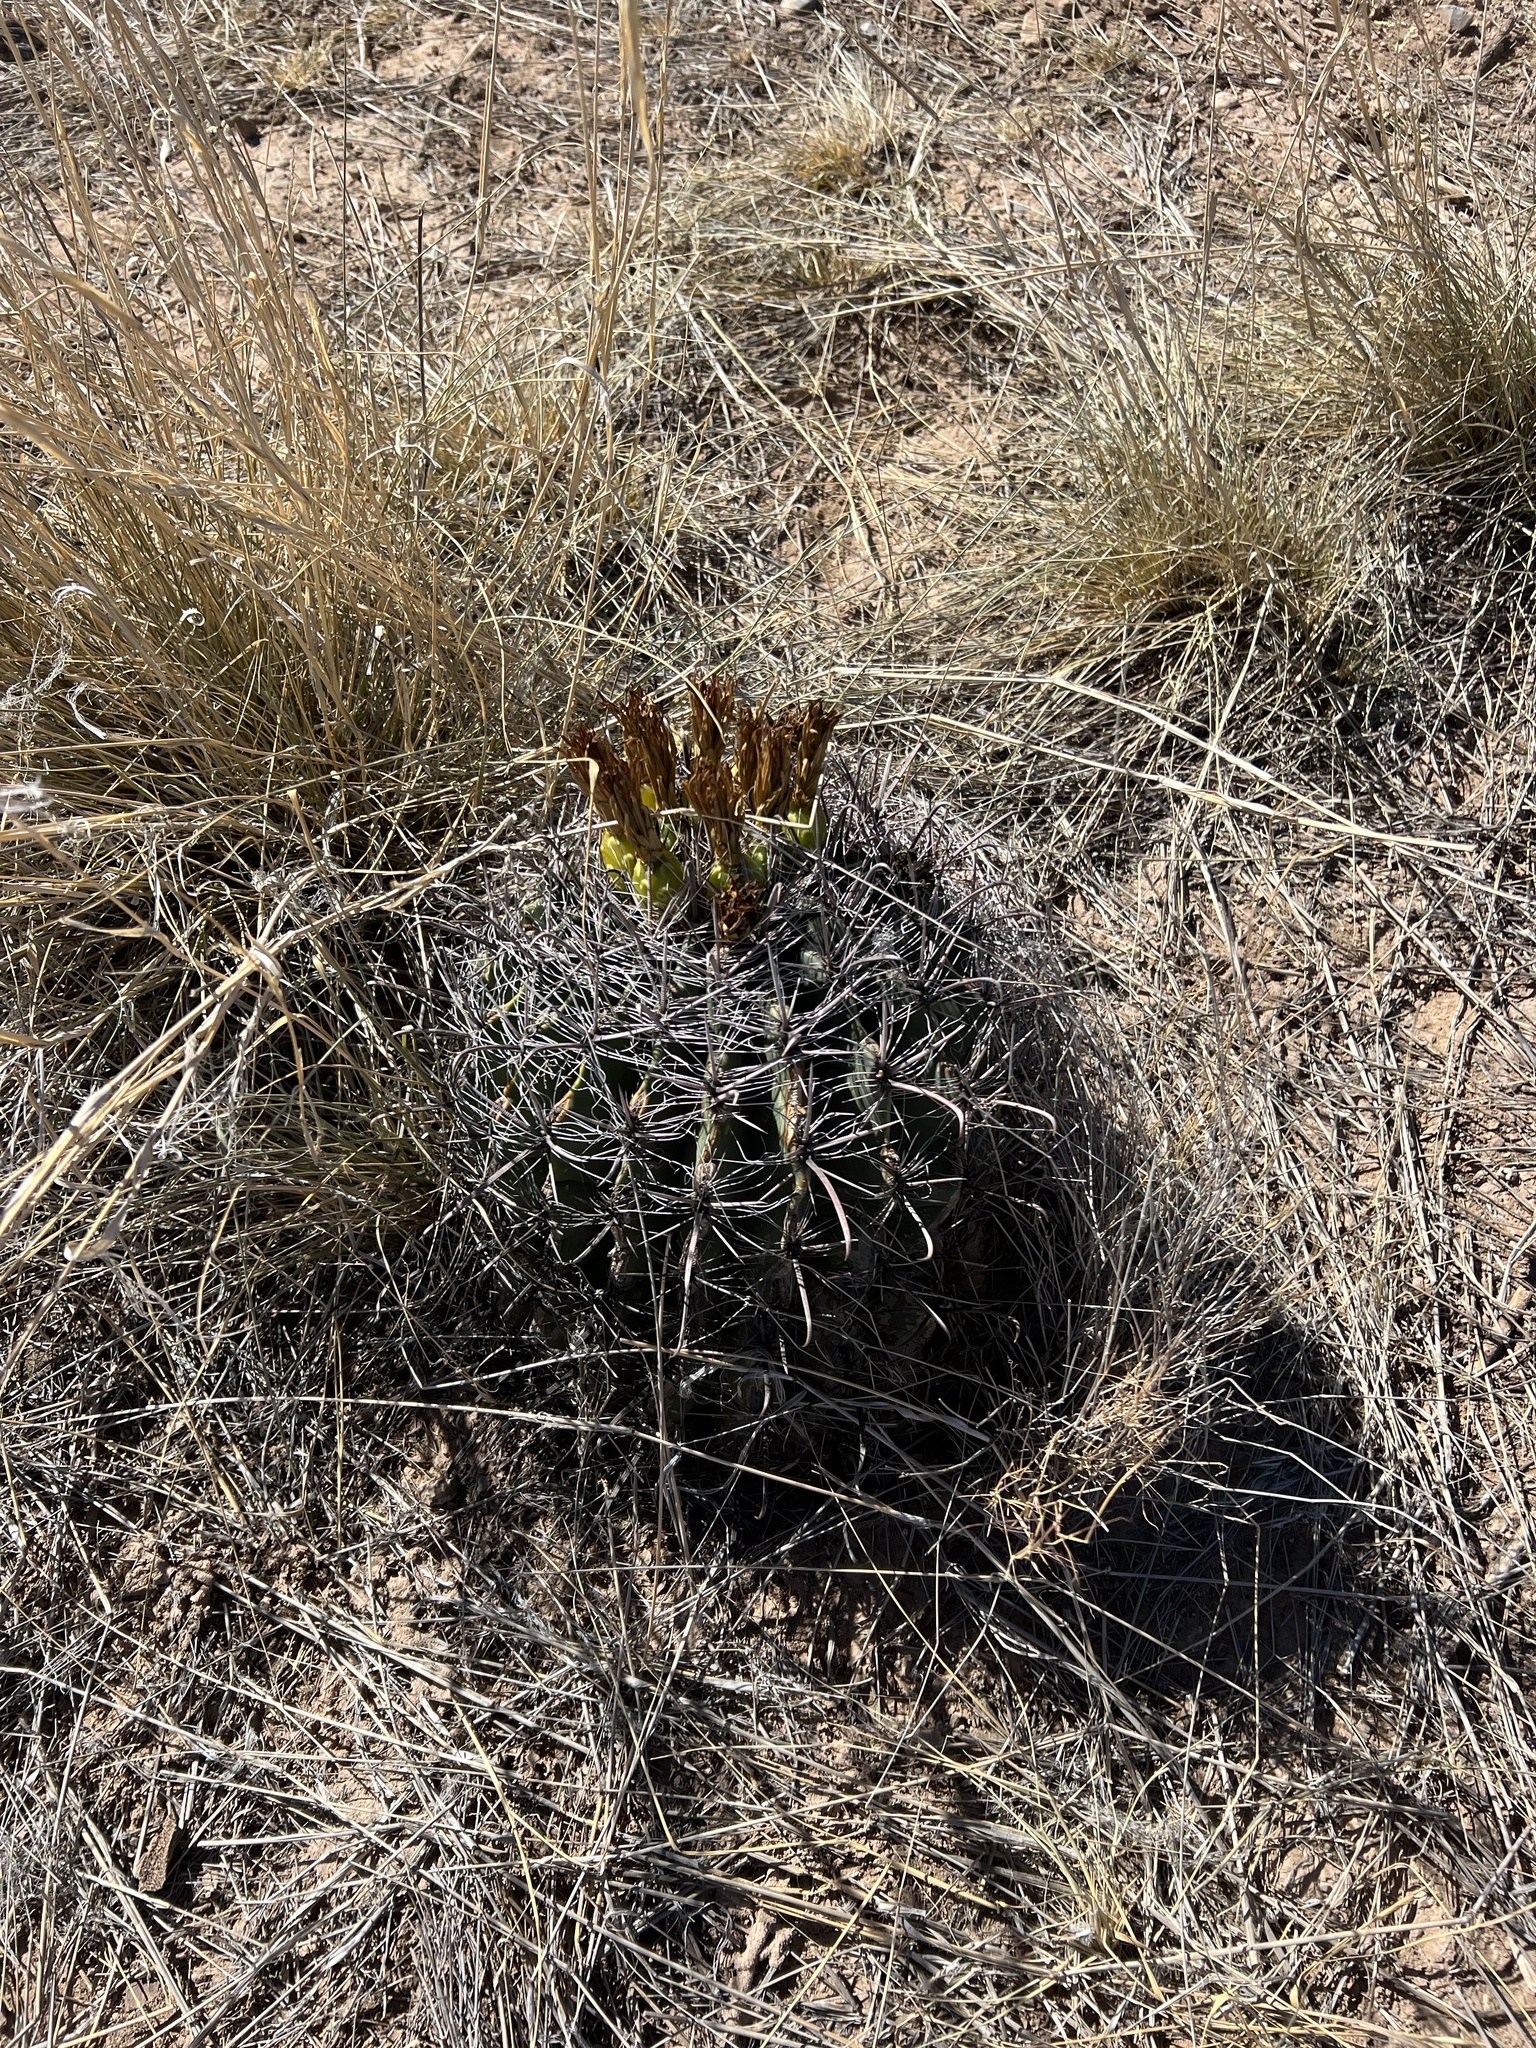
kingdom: Plantae
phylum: Tracheophyta
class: Magnoliopsida
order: Caryophyllales
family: Cactaceae
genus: Ferocactus
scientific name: Ferocactus wislizeni
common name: Candy barrel cactus
